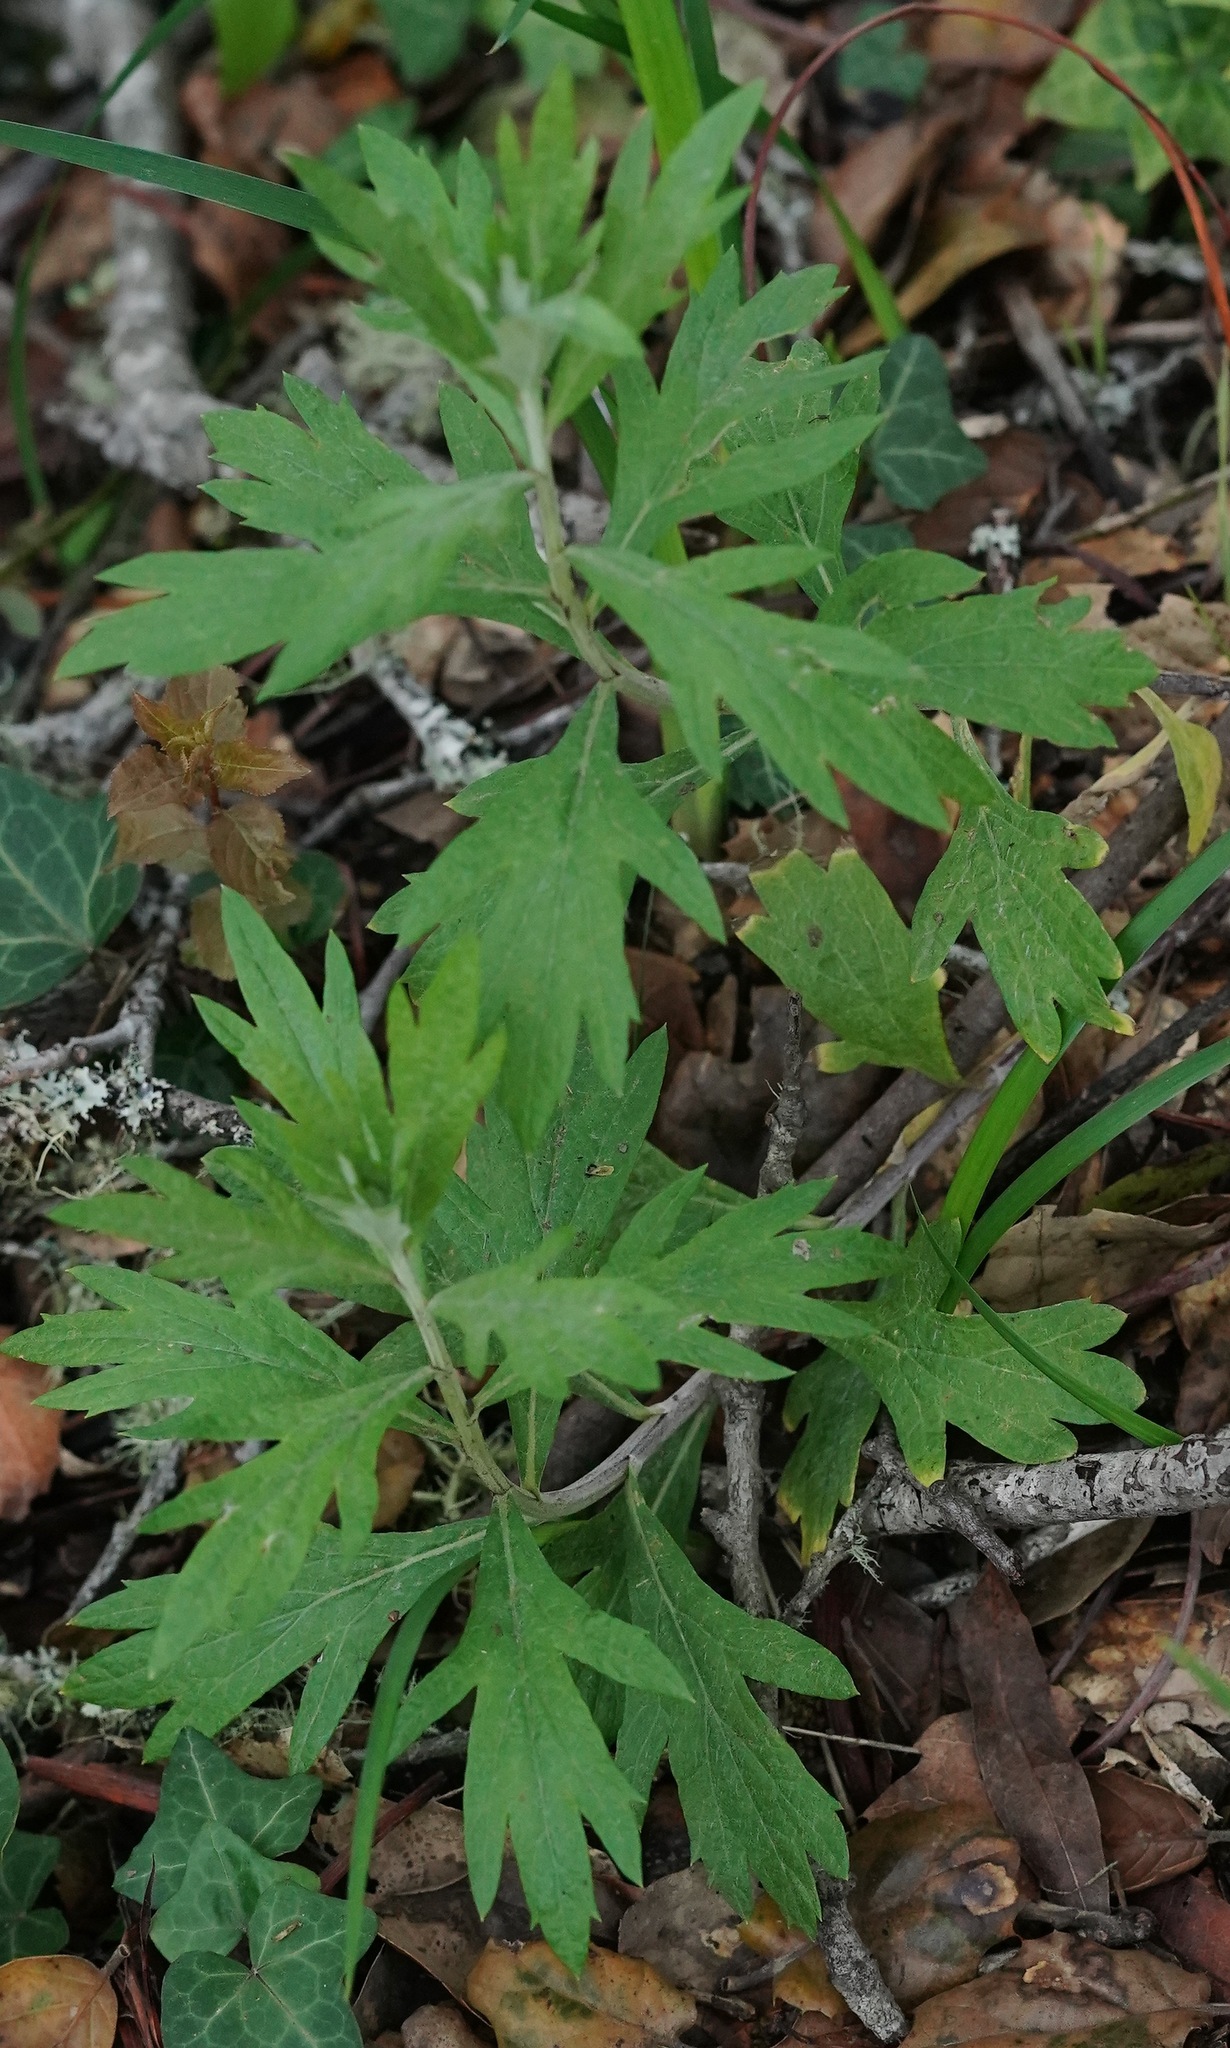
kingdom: Plantae
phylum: Tracheophyta
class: Magnoliopsida
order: Asterales
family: Asteraceae
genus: Artemisia
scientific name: Artemisia douglasiana
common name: Northwest mugwort
